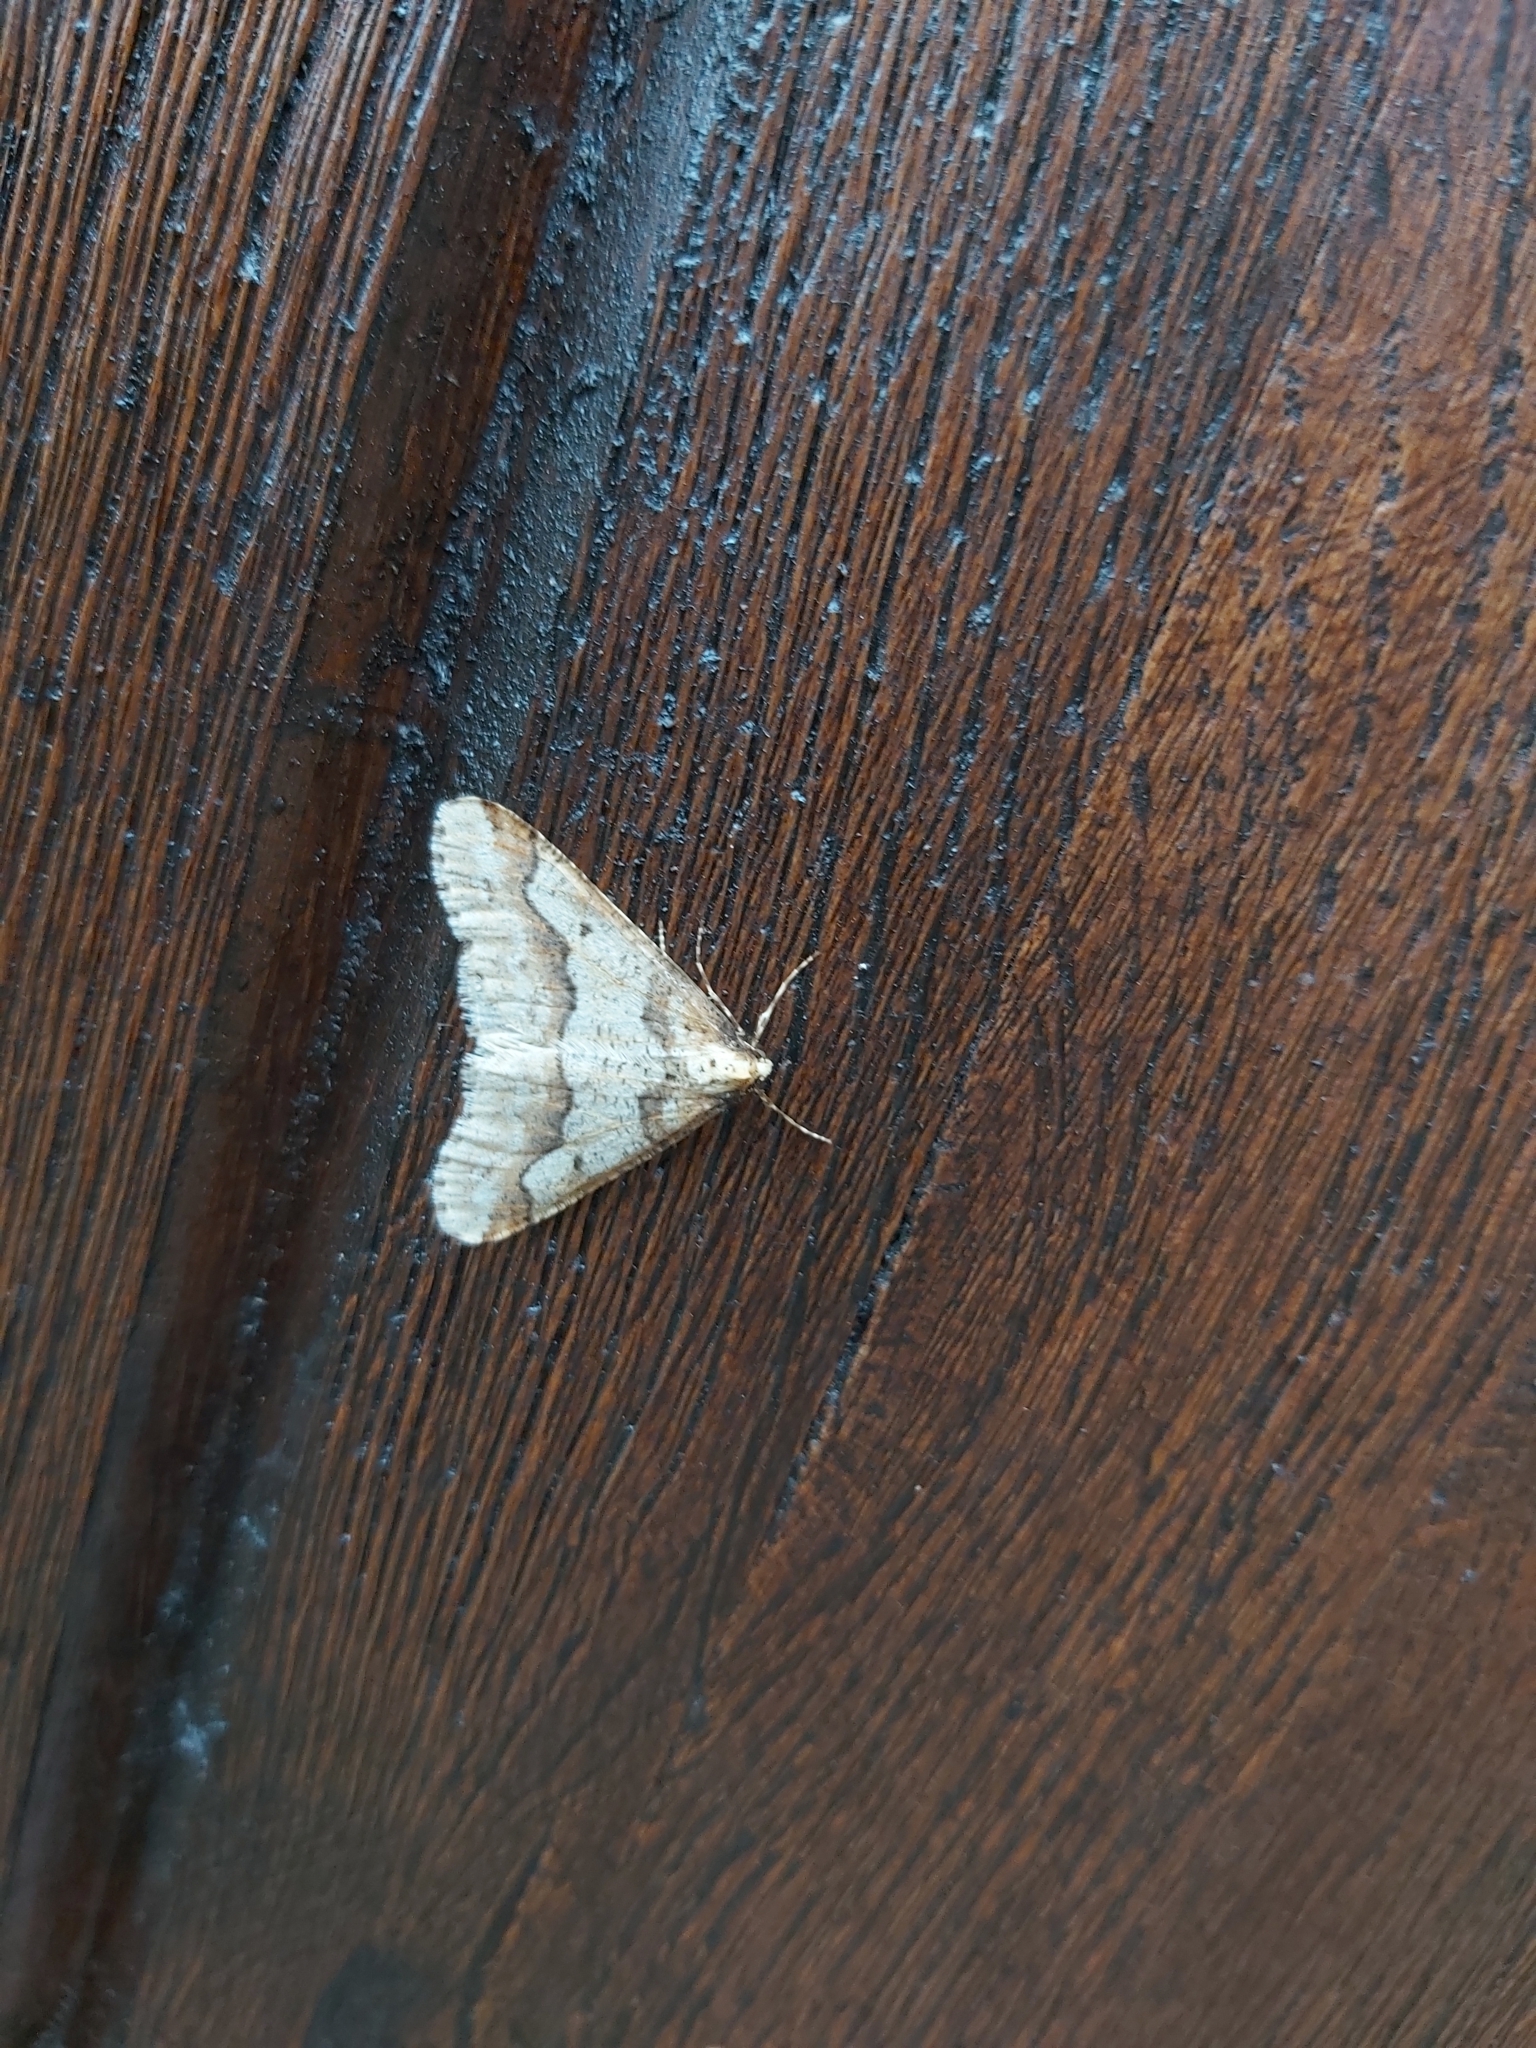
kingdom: Animalia
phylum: Arthropoda
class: Insecta
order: Lepidoptera
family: Geometridae
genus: Erannis
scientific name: Erannis defoliaria
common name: Mottled umber
